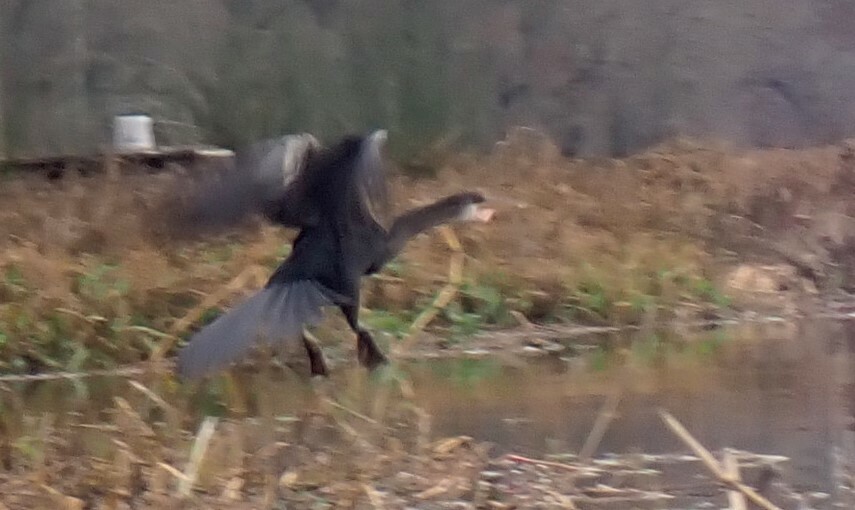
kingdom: Animalia
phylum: Chordata
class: Aves
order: Suliformes
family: Anhingidae
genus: Anhinga
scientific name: Anhinga anhinga
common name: Anhinga
